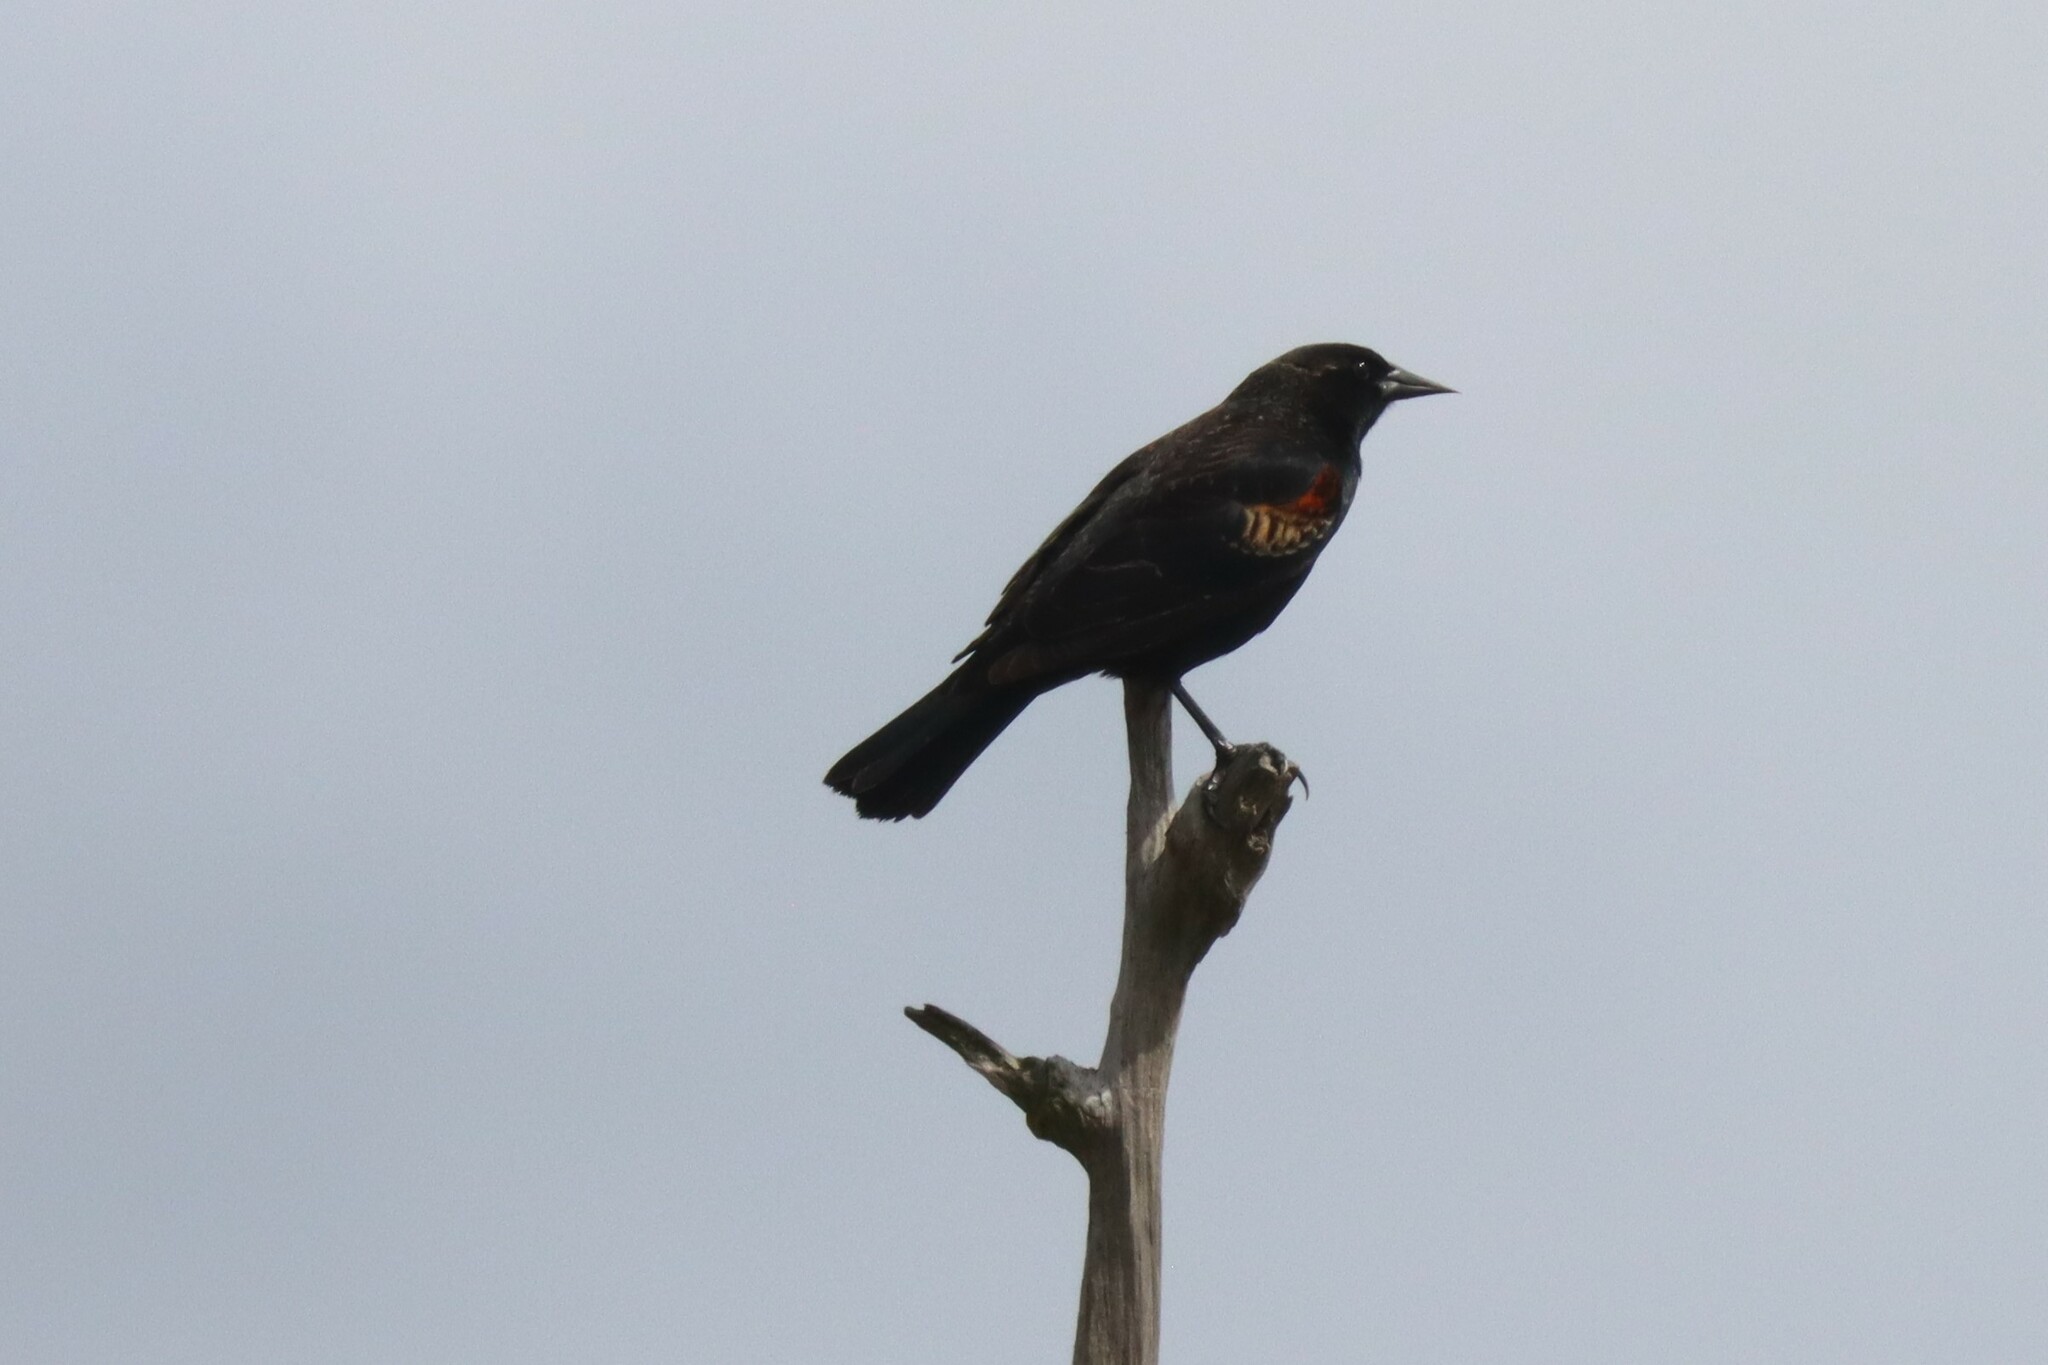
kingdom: Animalia
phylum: Chordata
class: Aves
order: Passeriformes
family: Icteridae
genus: Agelaius
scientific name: Agelaius phoeniceus
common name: Red-winged blackbird
